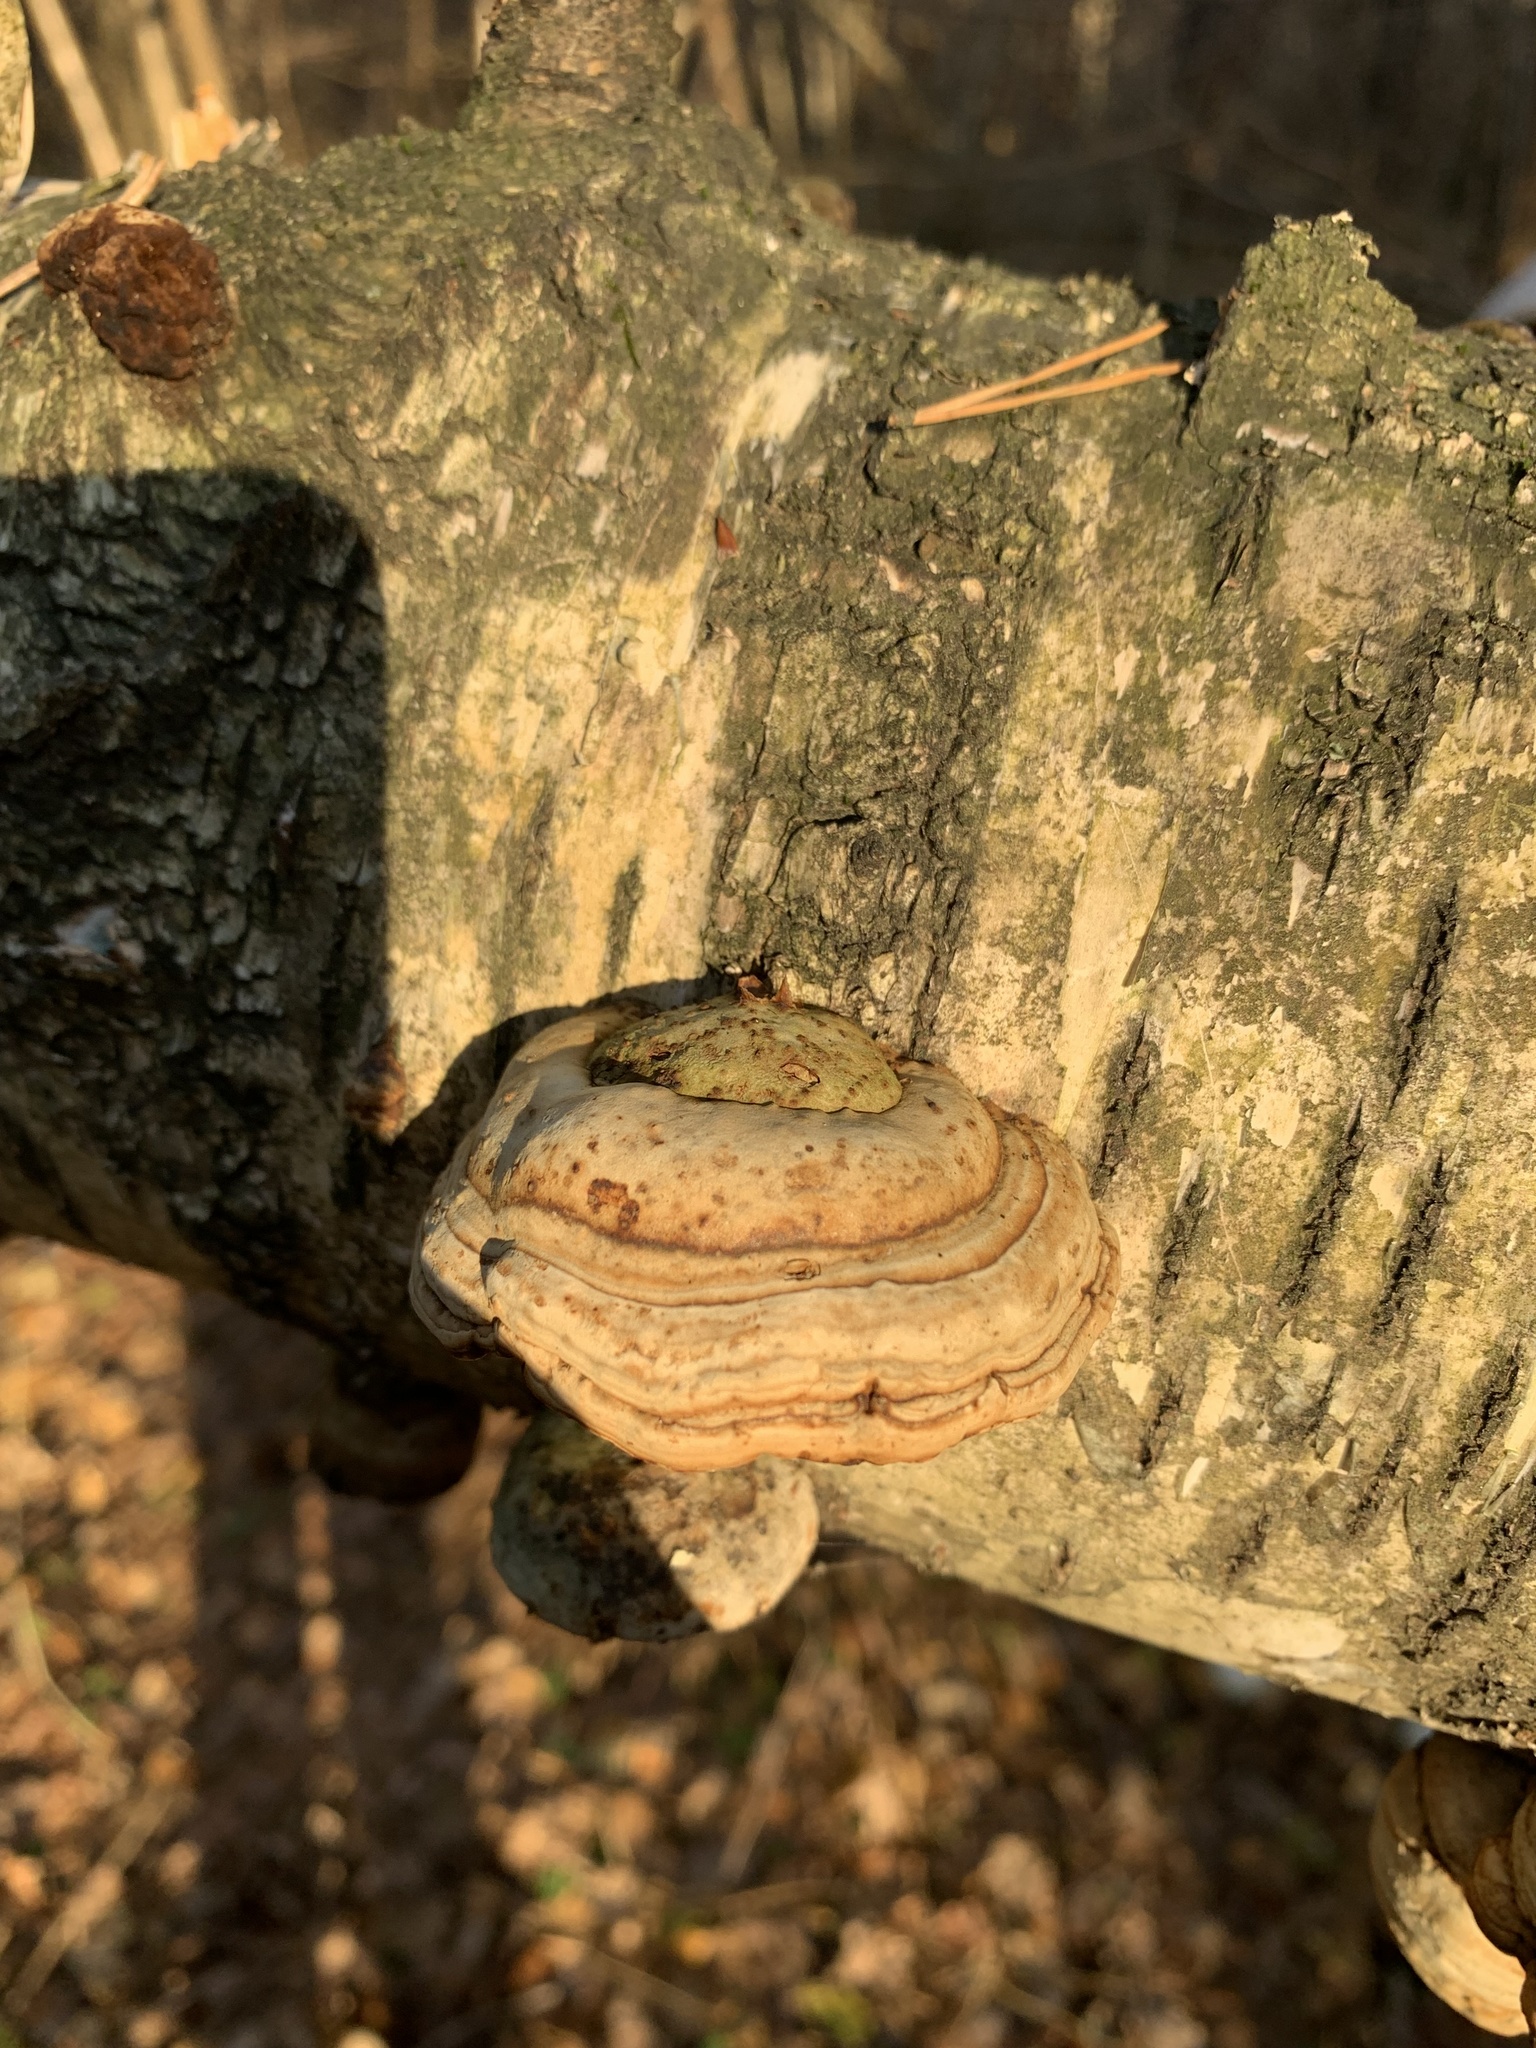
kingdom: Fungi
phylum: Basidiomycota
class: Agaricomycetes
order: Polyporales
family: Polyporaceae
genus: Fomes
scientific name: Fomes fomentarius
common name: Hoof fungus
